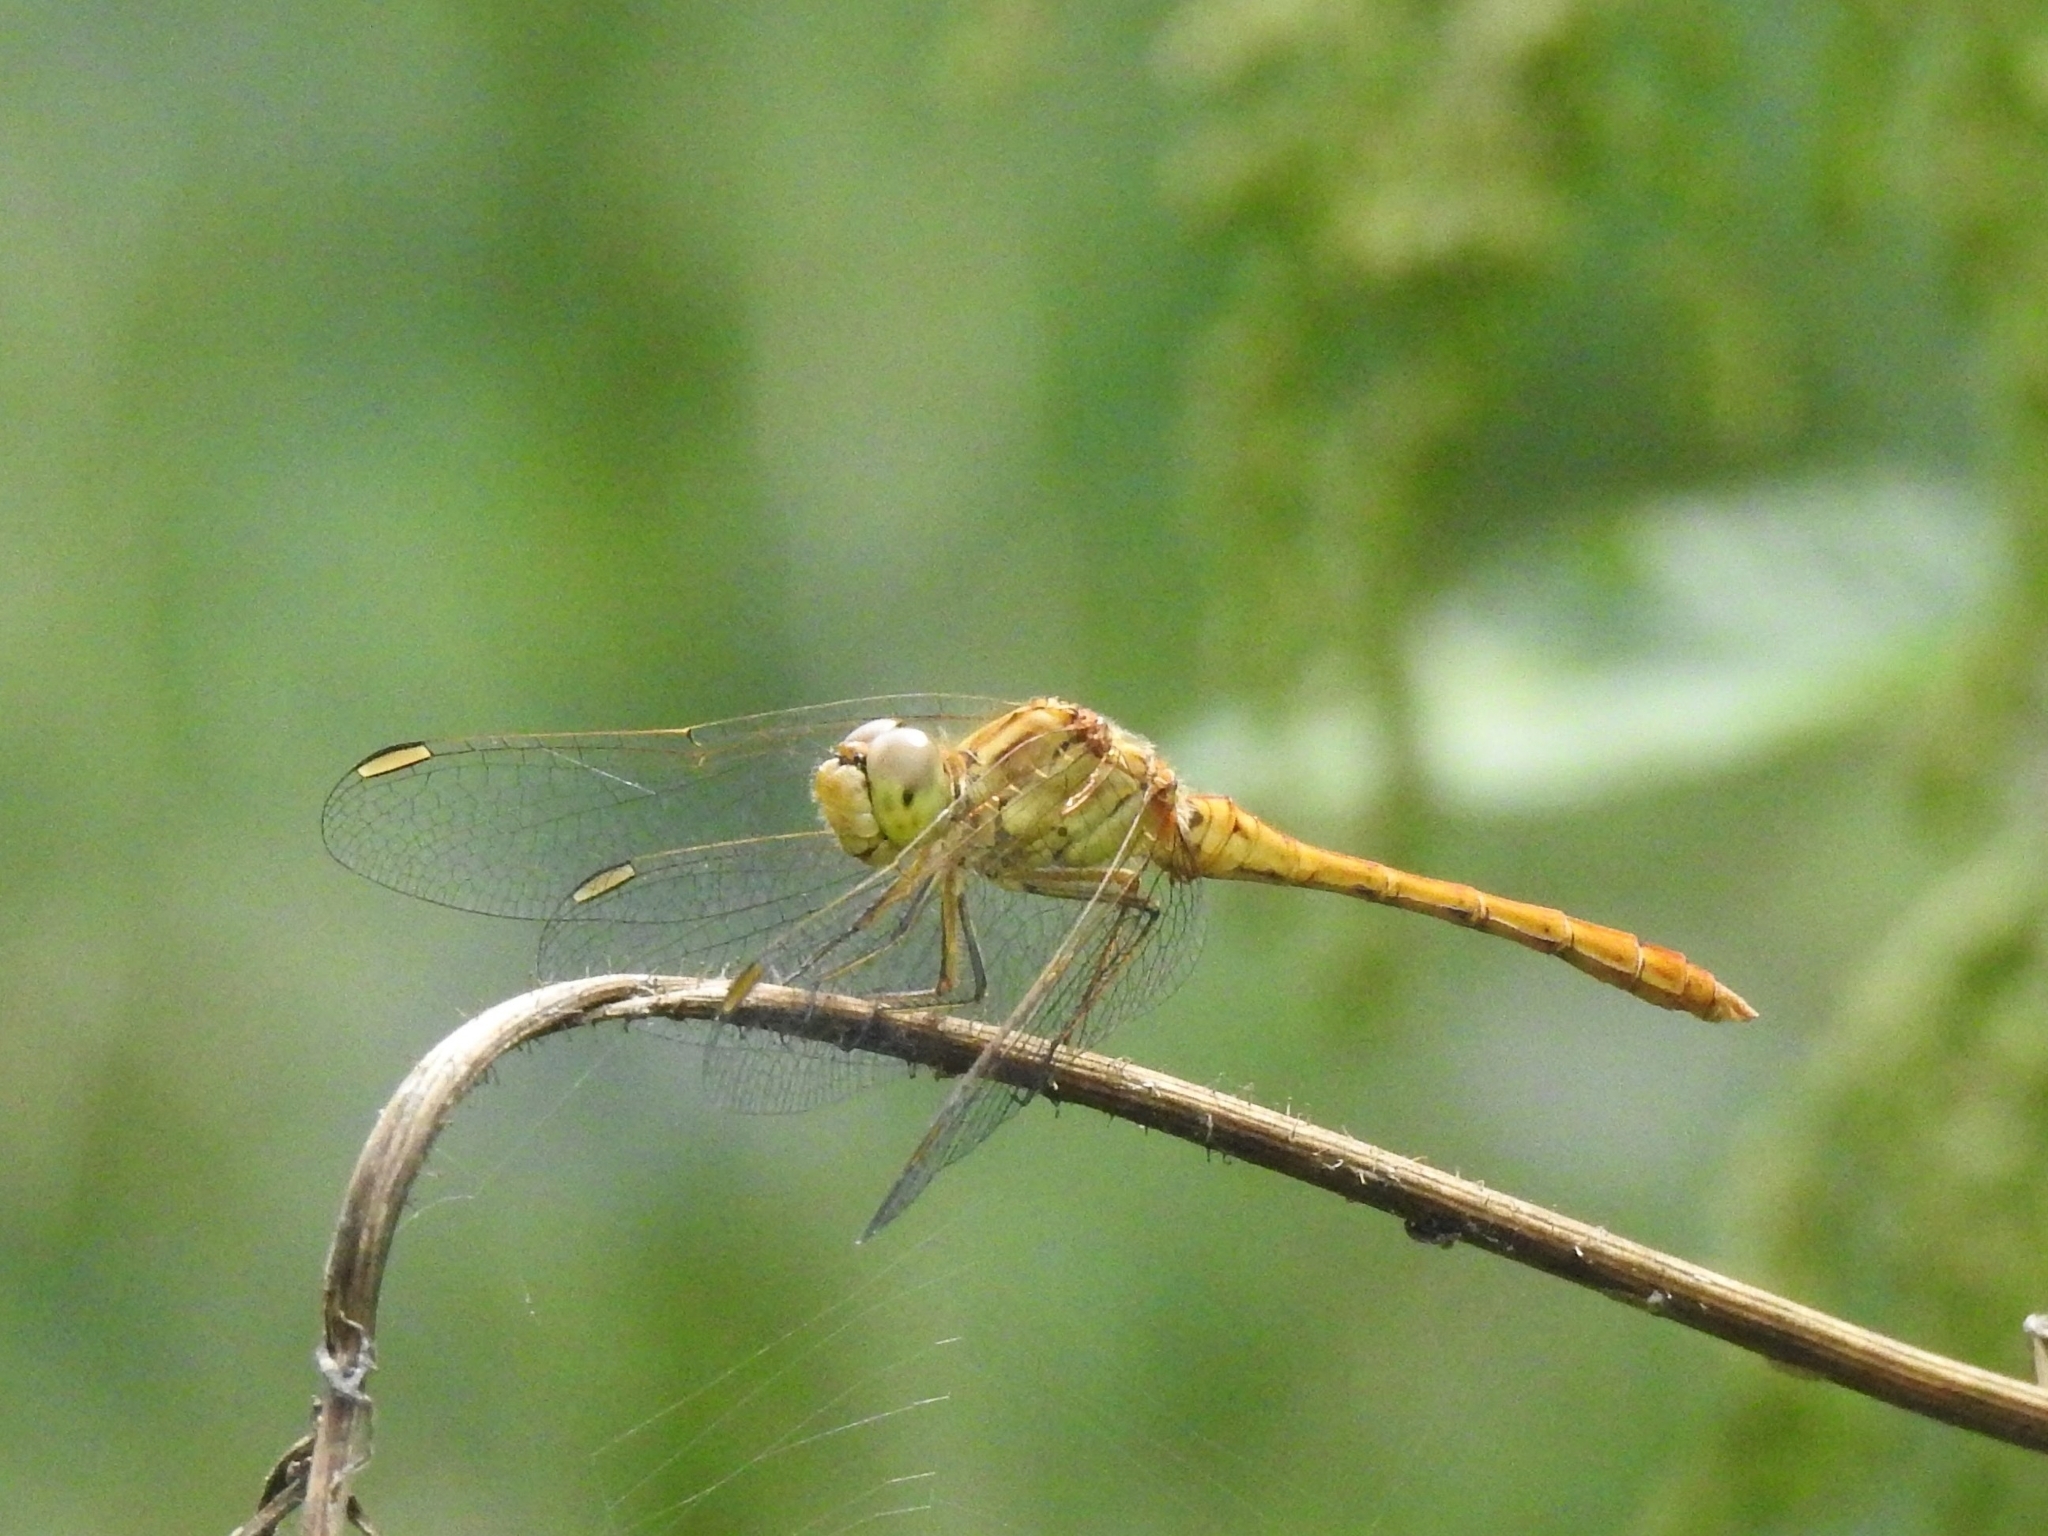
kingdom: Animalia
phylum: Arthropoda
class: Insecta
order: Odonata
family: Libellulidae
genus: Sympetrum
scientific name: Sympetrum meridionale
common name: Southern darter
